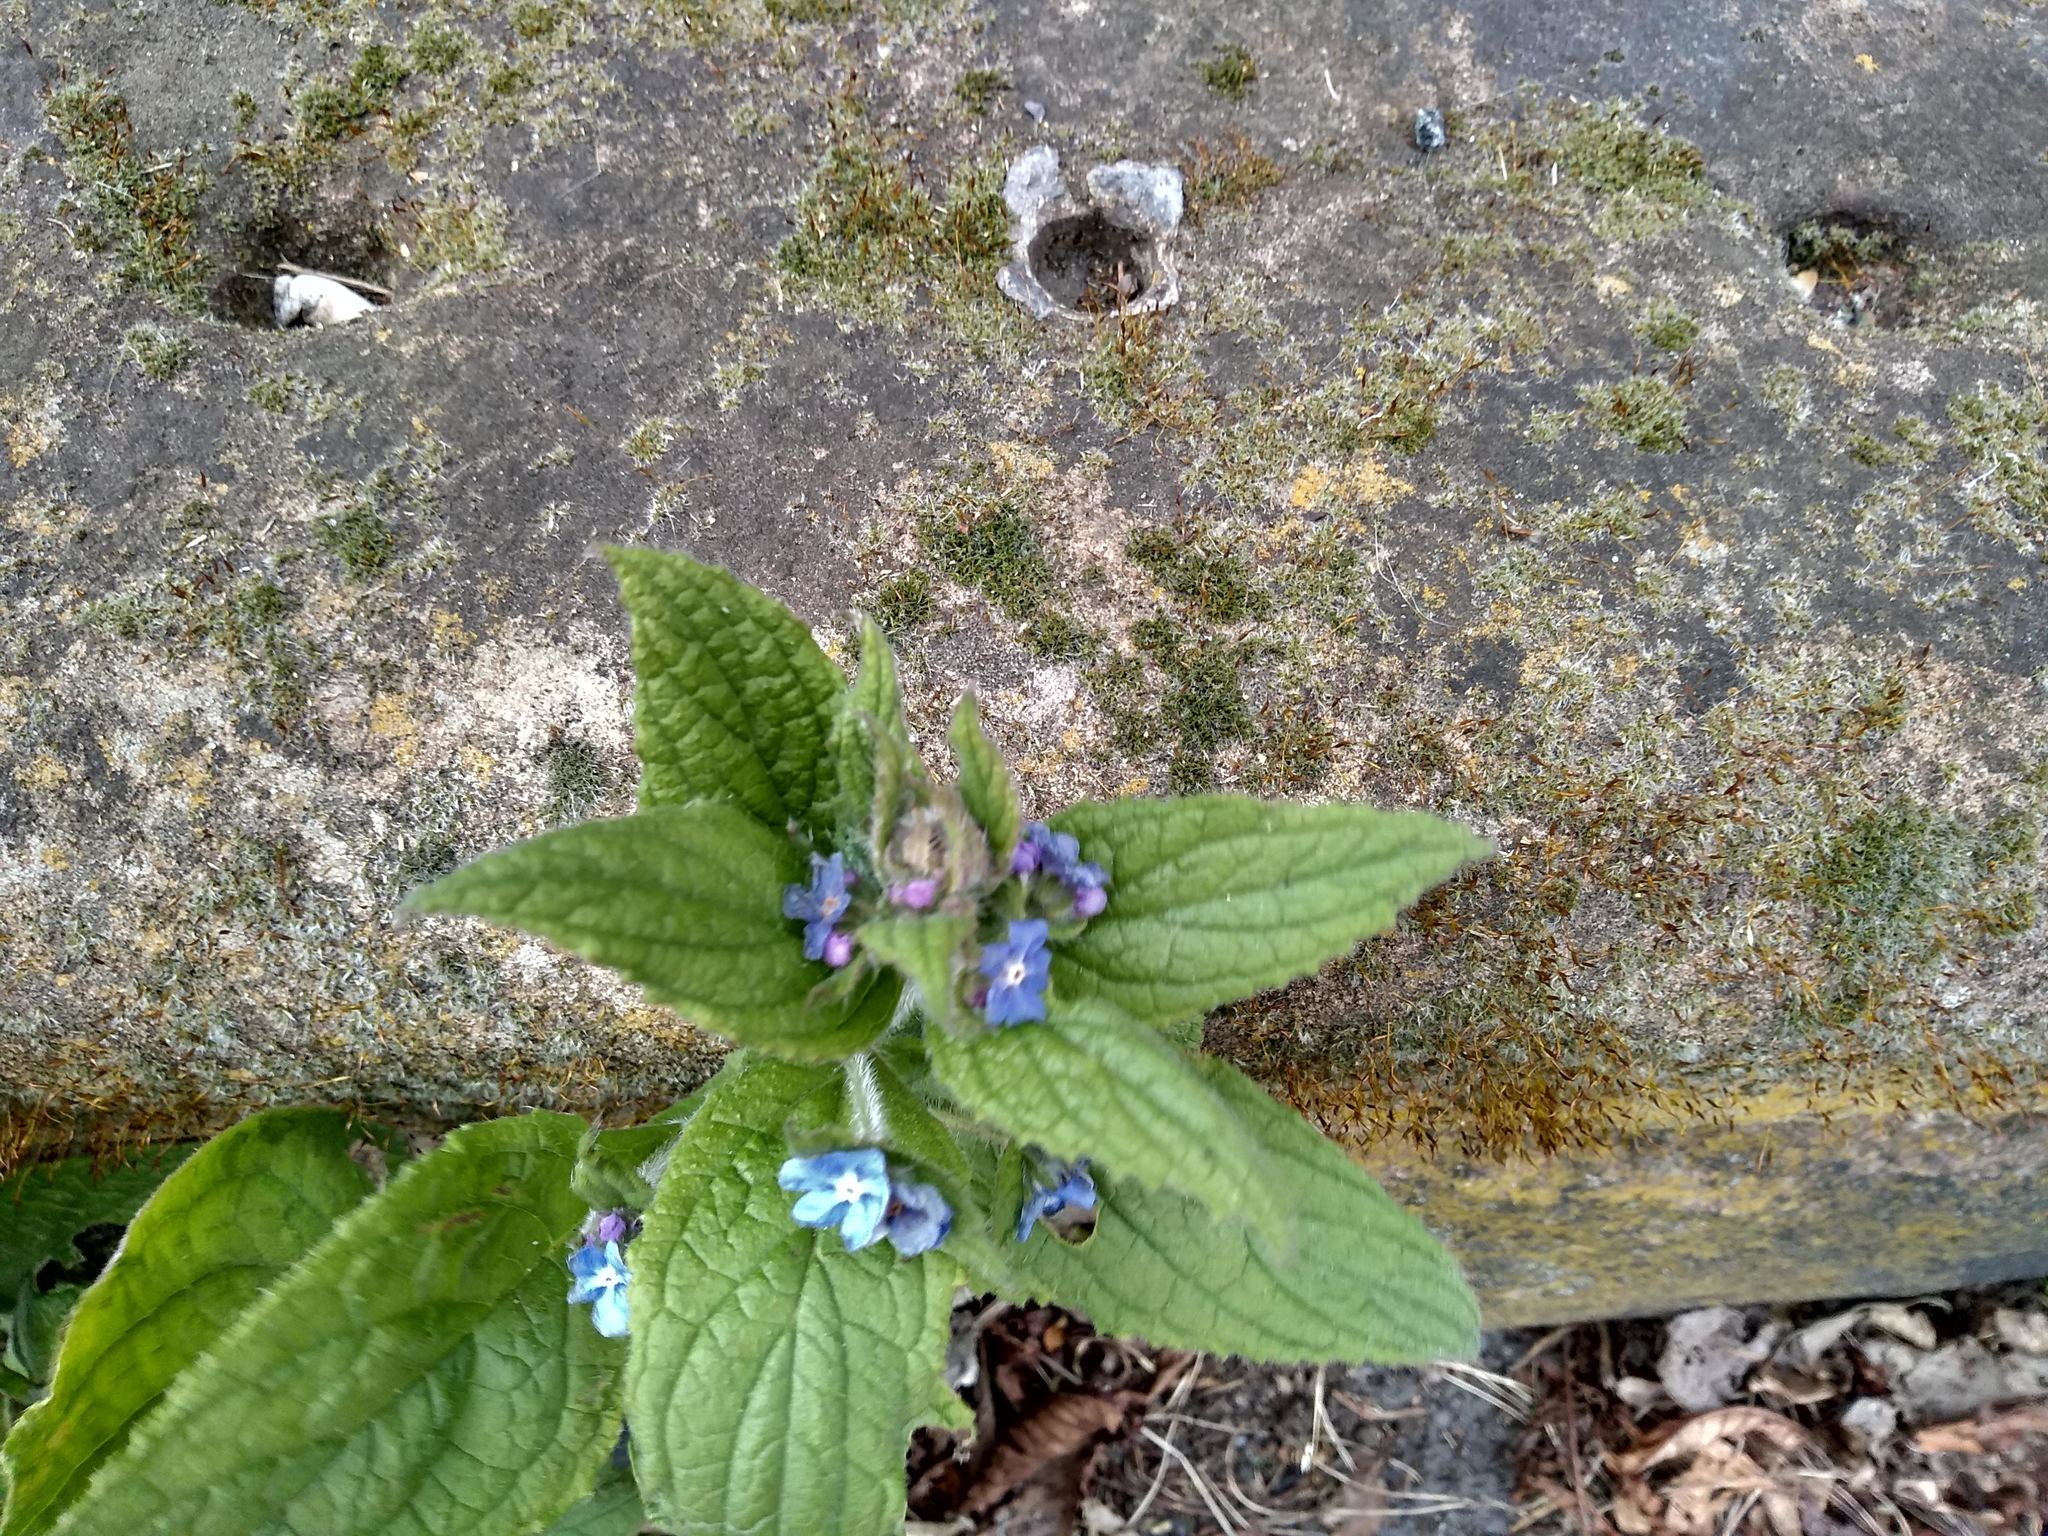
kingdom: Plantae
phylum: Tracheophyta
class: Magnoliopsida
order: Boraginales
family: Boraginaceae
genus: Pentaglottis
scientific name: Pentaglottis sempervirens
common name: Green alkanet
